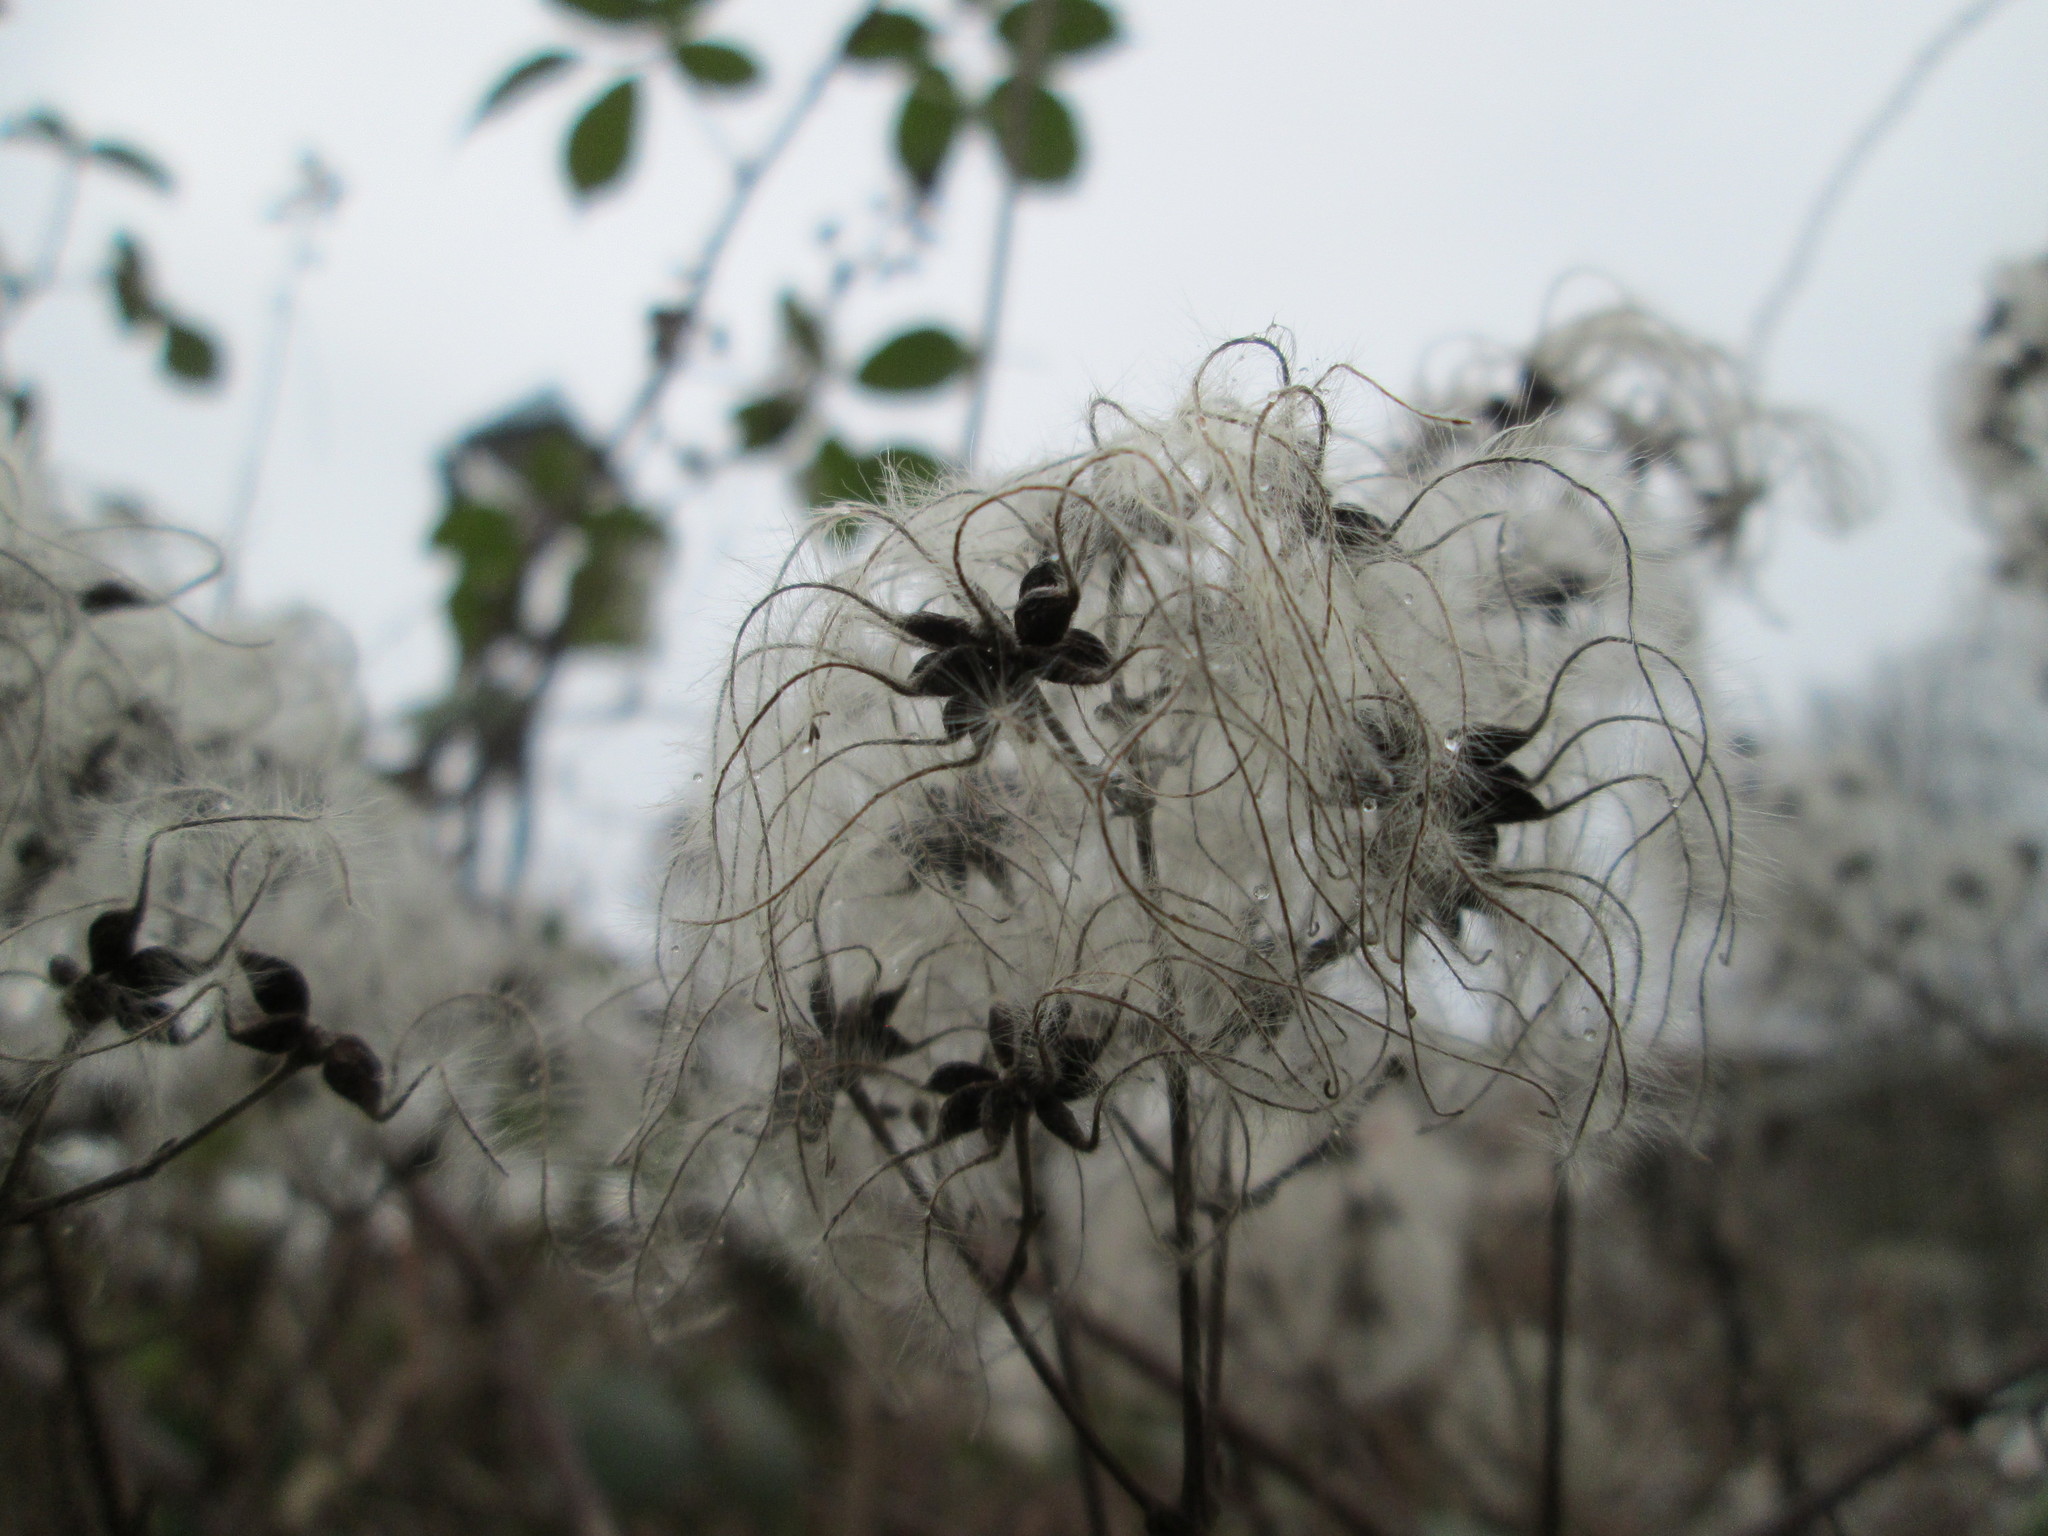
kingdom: Plantae
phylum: Tracheophyta
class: Magnoliopsida
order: Ranunculales
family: Ranunculaceae
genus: Clematis
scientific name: Clematis vitalba
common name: Evergreen clematis
